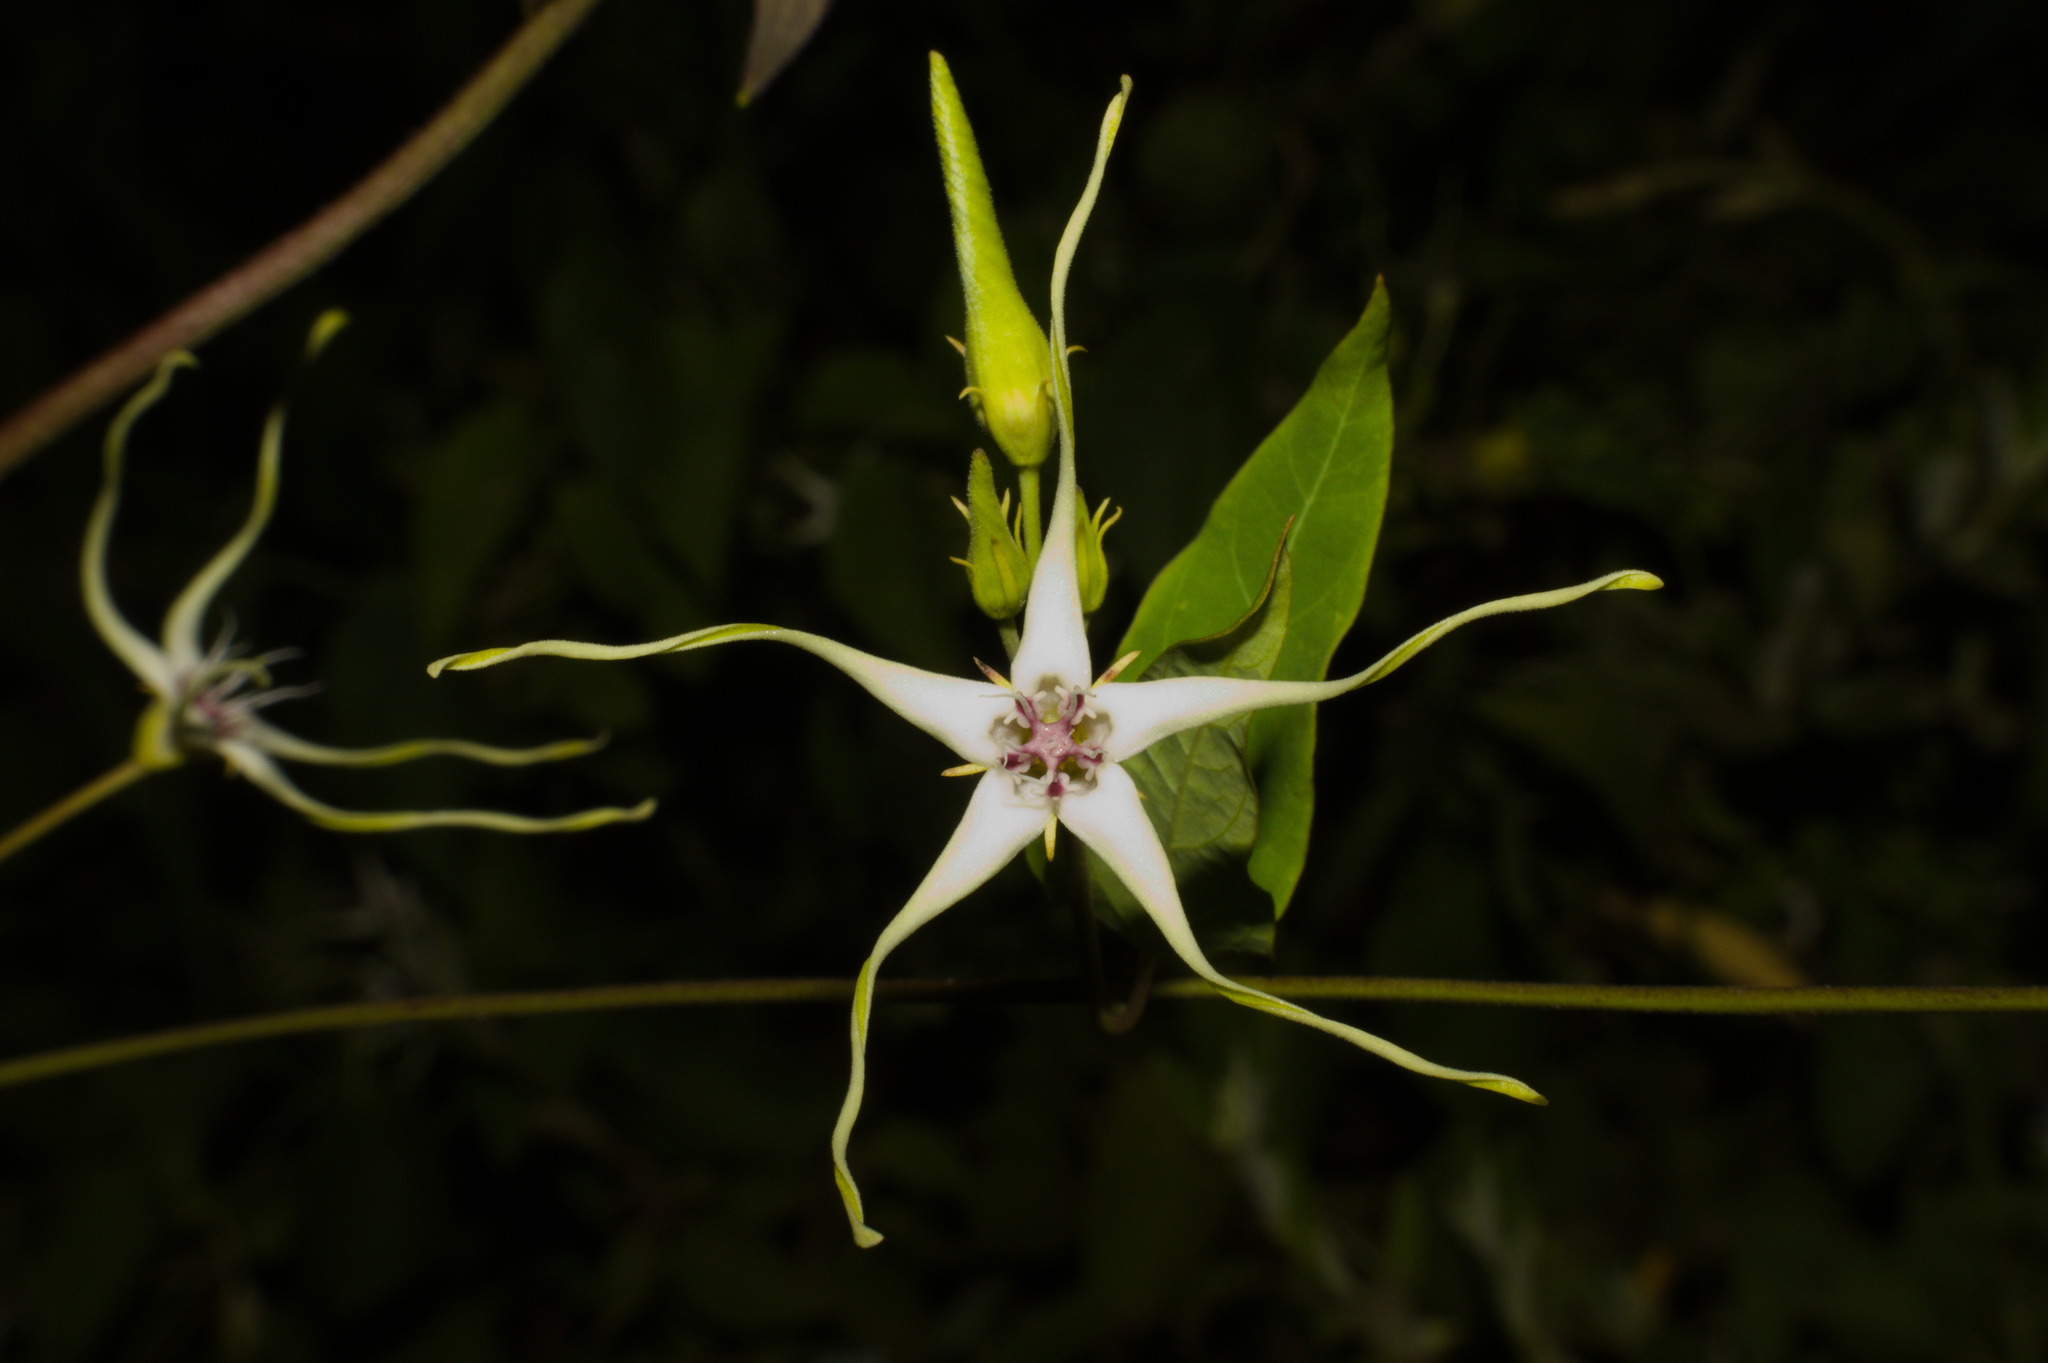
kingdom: Plantae
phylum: Tracheophyta
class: Magnoliopsida
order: Gentianales
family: Apocynaceae
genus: Oxypetalum
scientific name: Oxypetalum mosenii
